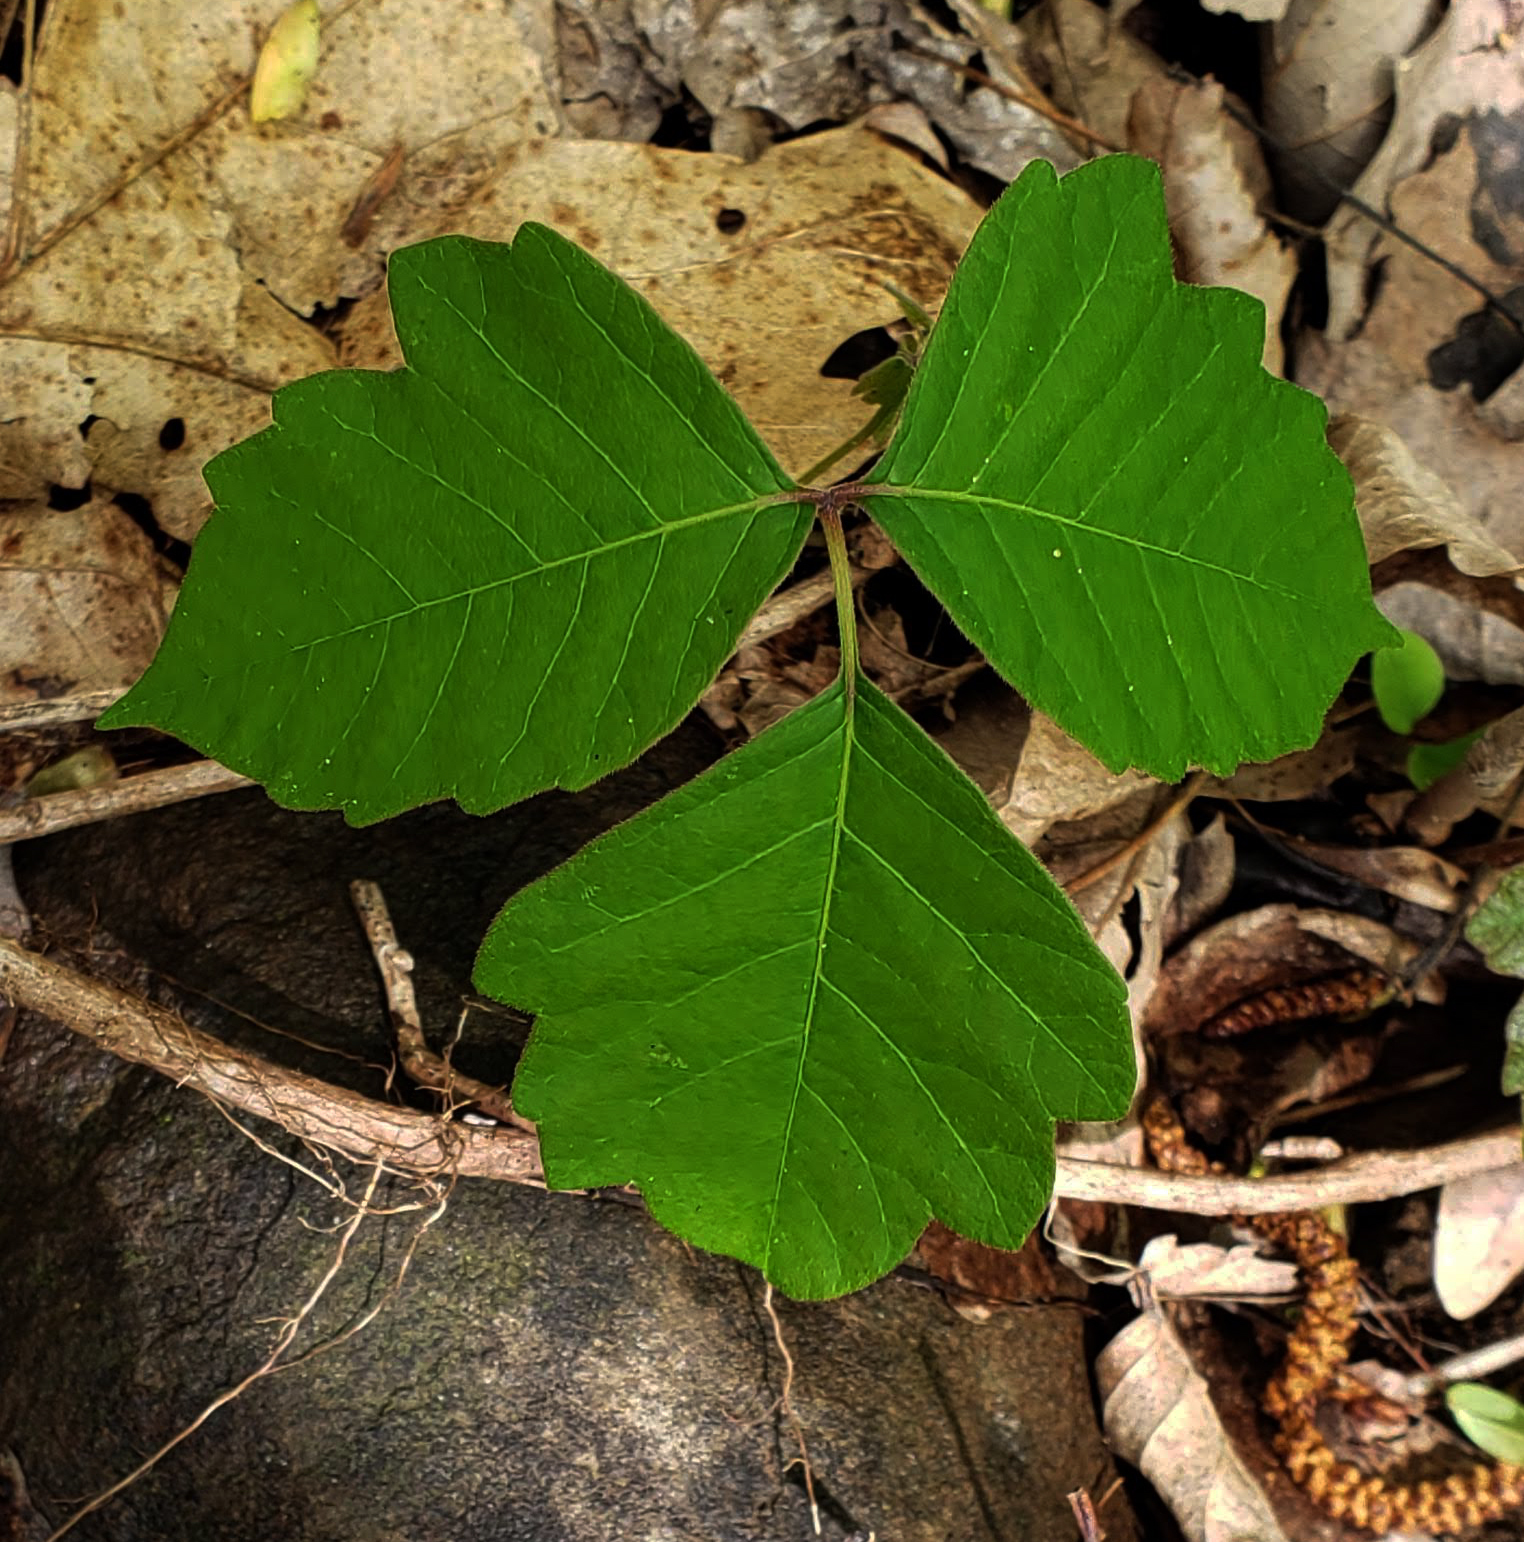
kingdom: Plantae
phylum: Tracheophyta
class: Magnoliopsida
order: Sapindales
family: Anacardiaceae
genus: Toxicodendron
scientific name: Toxicodendron radicans
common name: Poison ivy
